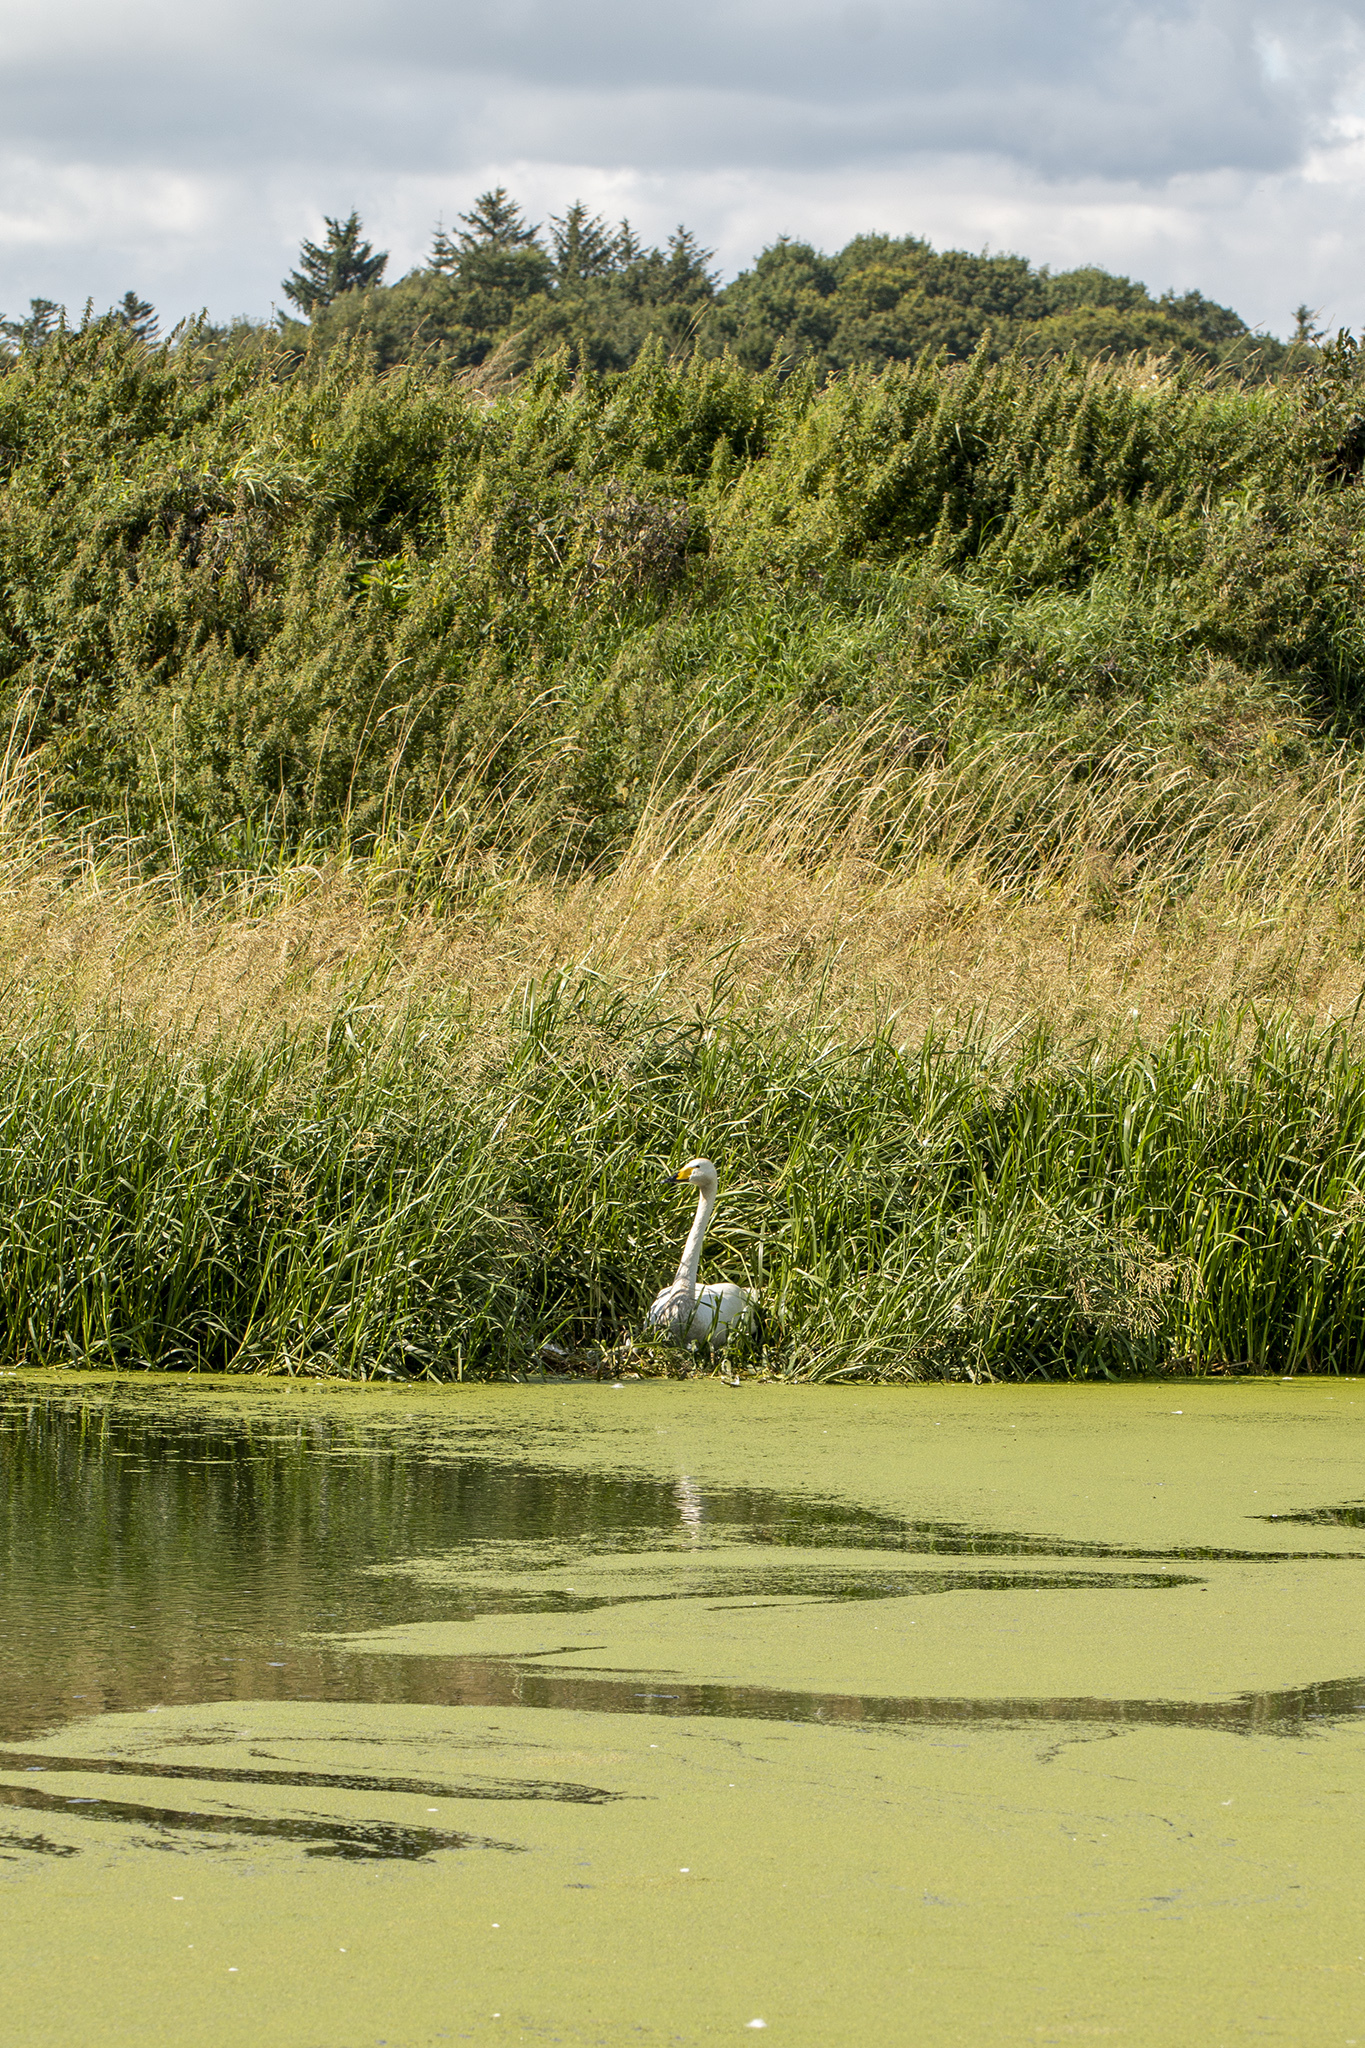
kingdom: Animalia
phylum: Chordata
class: Aves
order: Anseriformes
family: Anatidae
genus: Cygnus
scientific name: Cygnus cygnus
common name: Whooper swan
